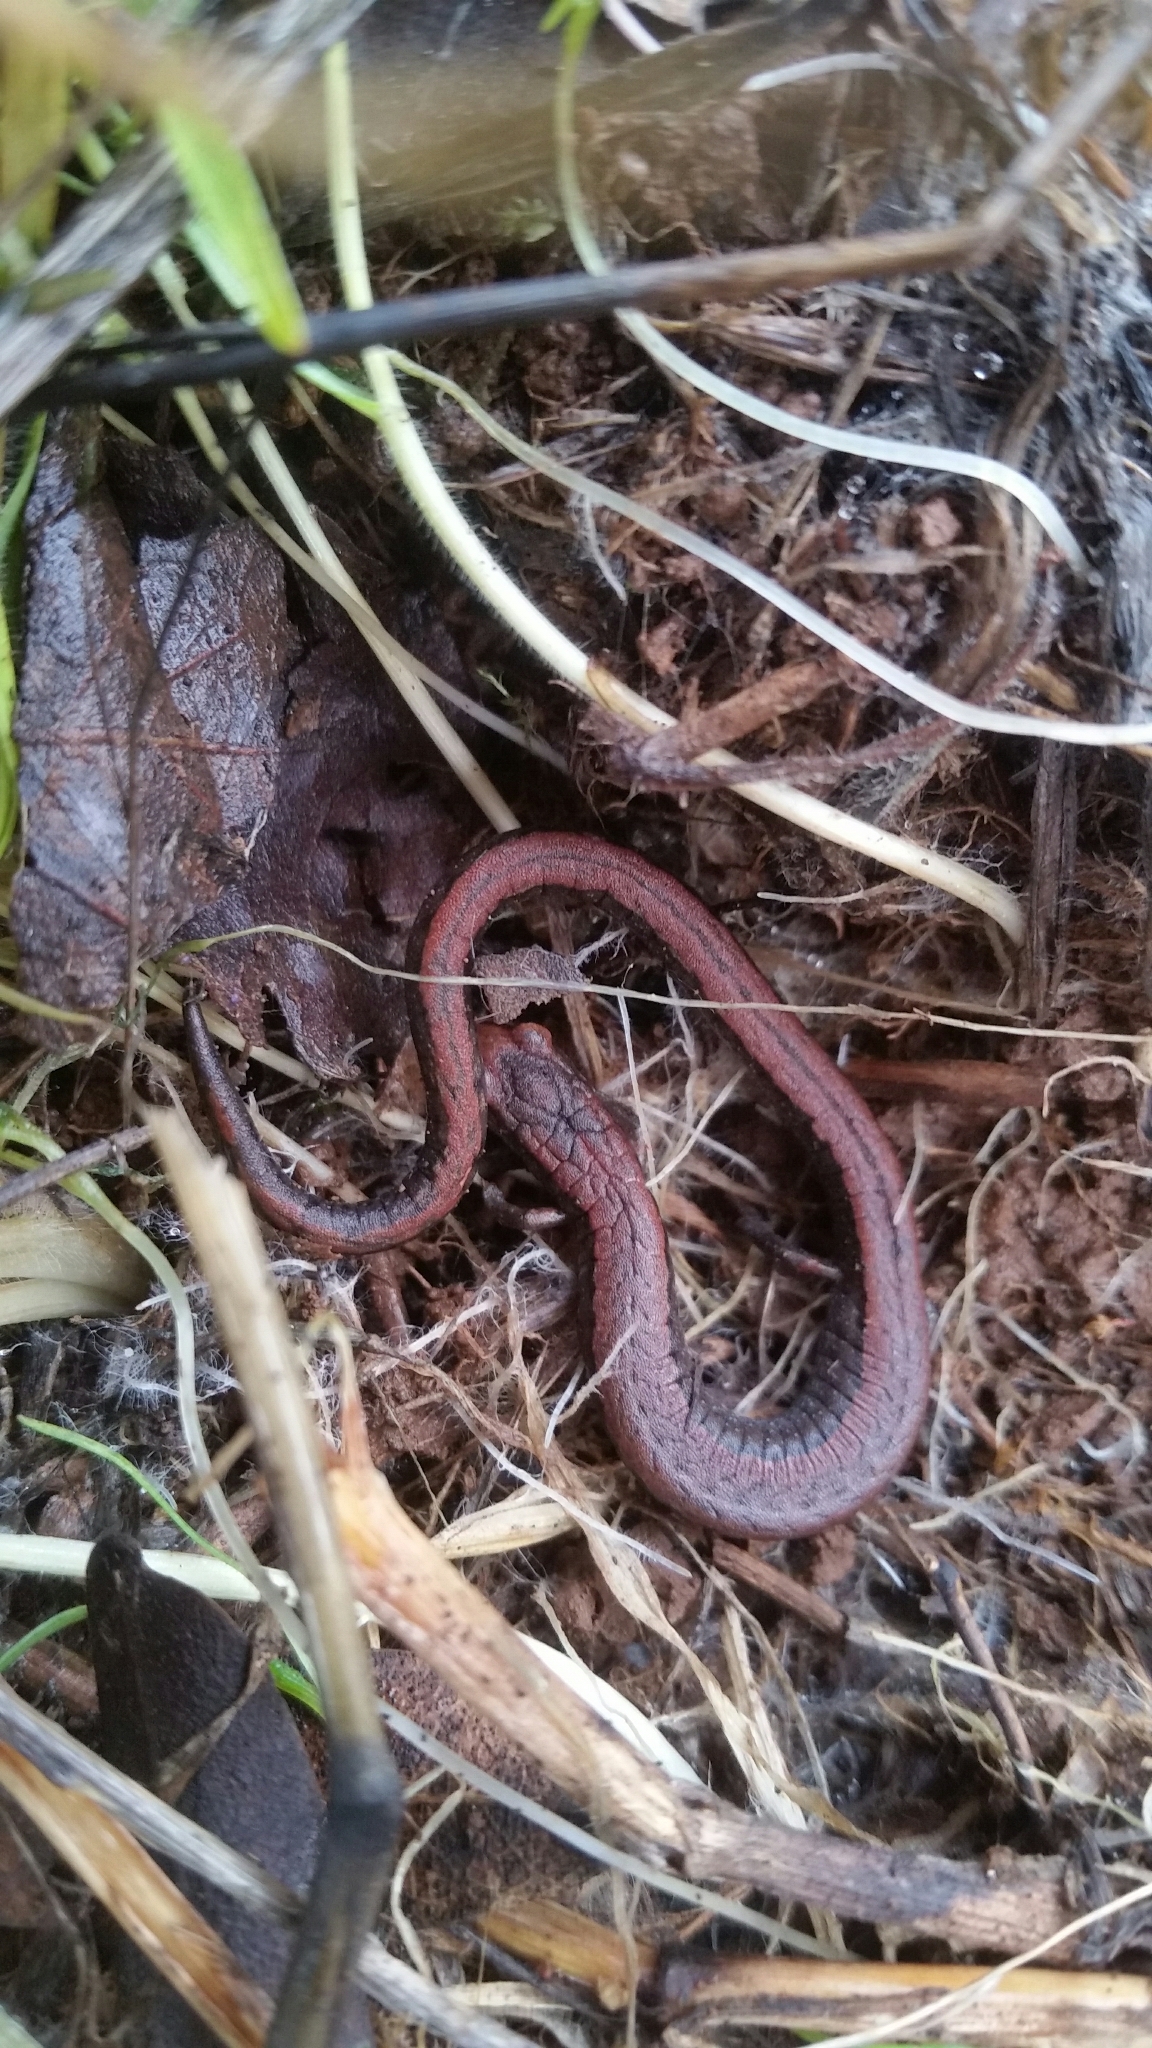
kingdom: Animalia
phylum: Chordata
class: Amphibia
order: Caudata
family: Plethodontidae
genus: Batrachoseps
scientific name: Batrachoseps attenuatus
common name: California slender salamander
